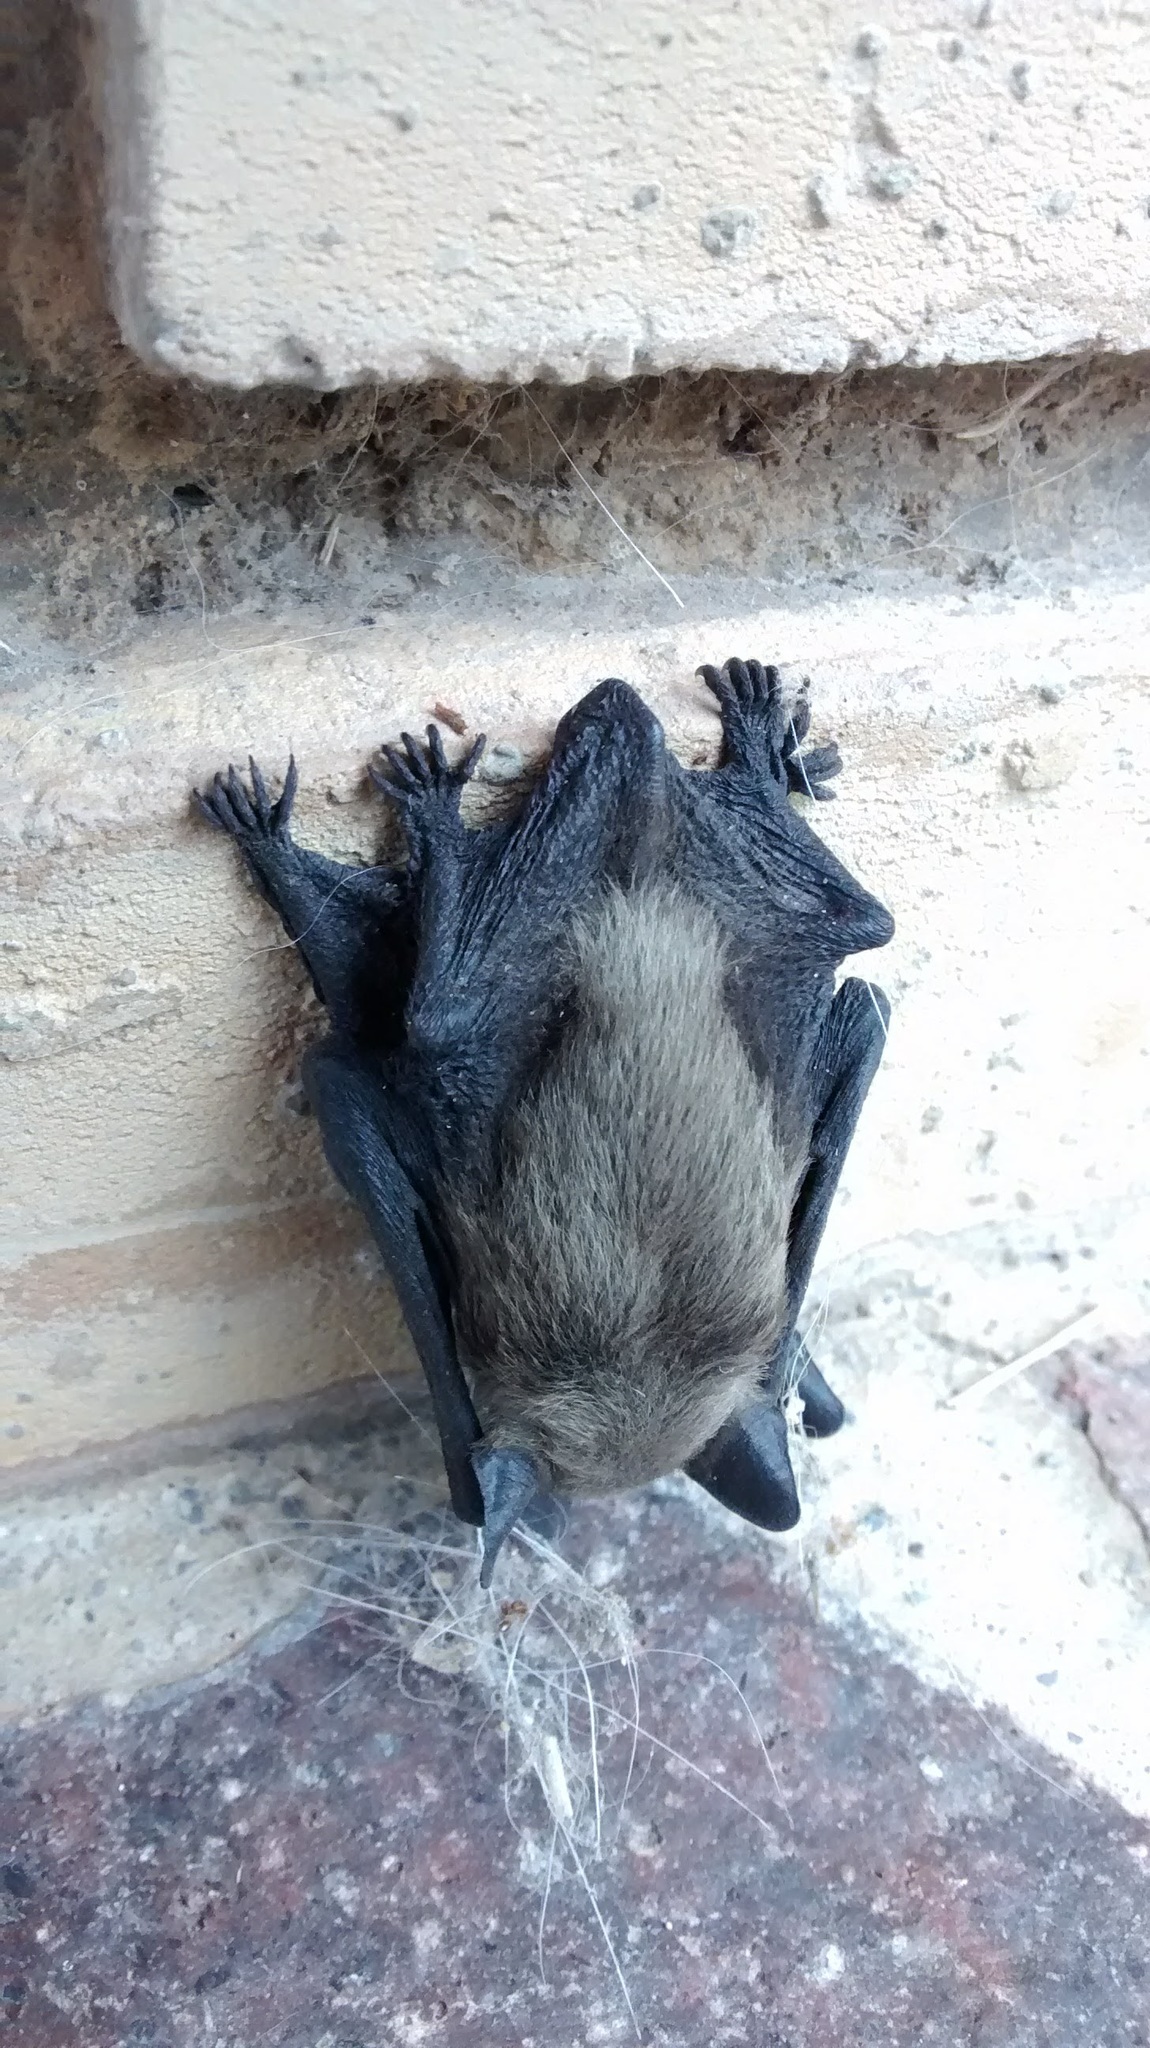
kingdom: Animalia
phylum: Chordata
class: Mammalia
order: Chiroptera
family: Vespertilionidae
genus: Parastrellus
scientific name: Parastrellus hesperus
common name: Canyon bat
